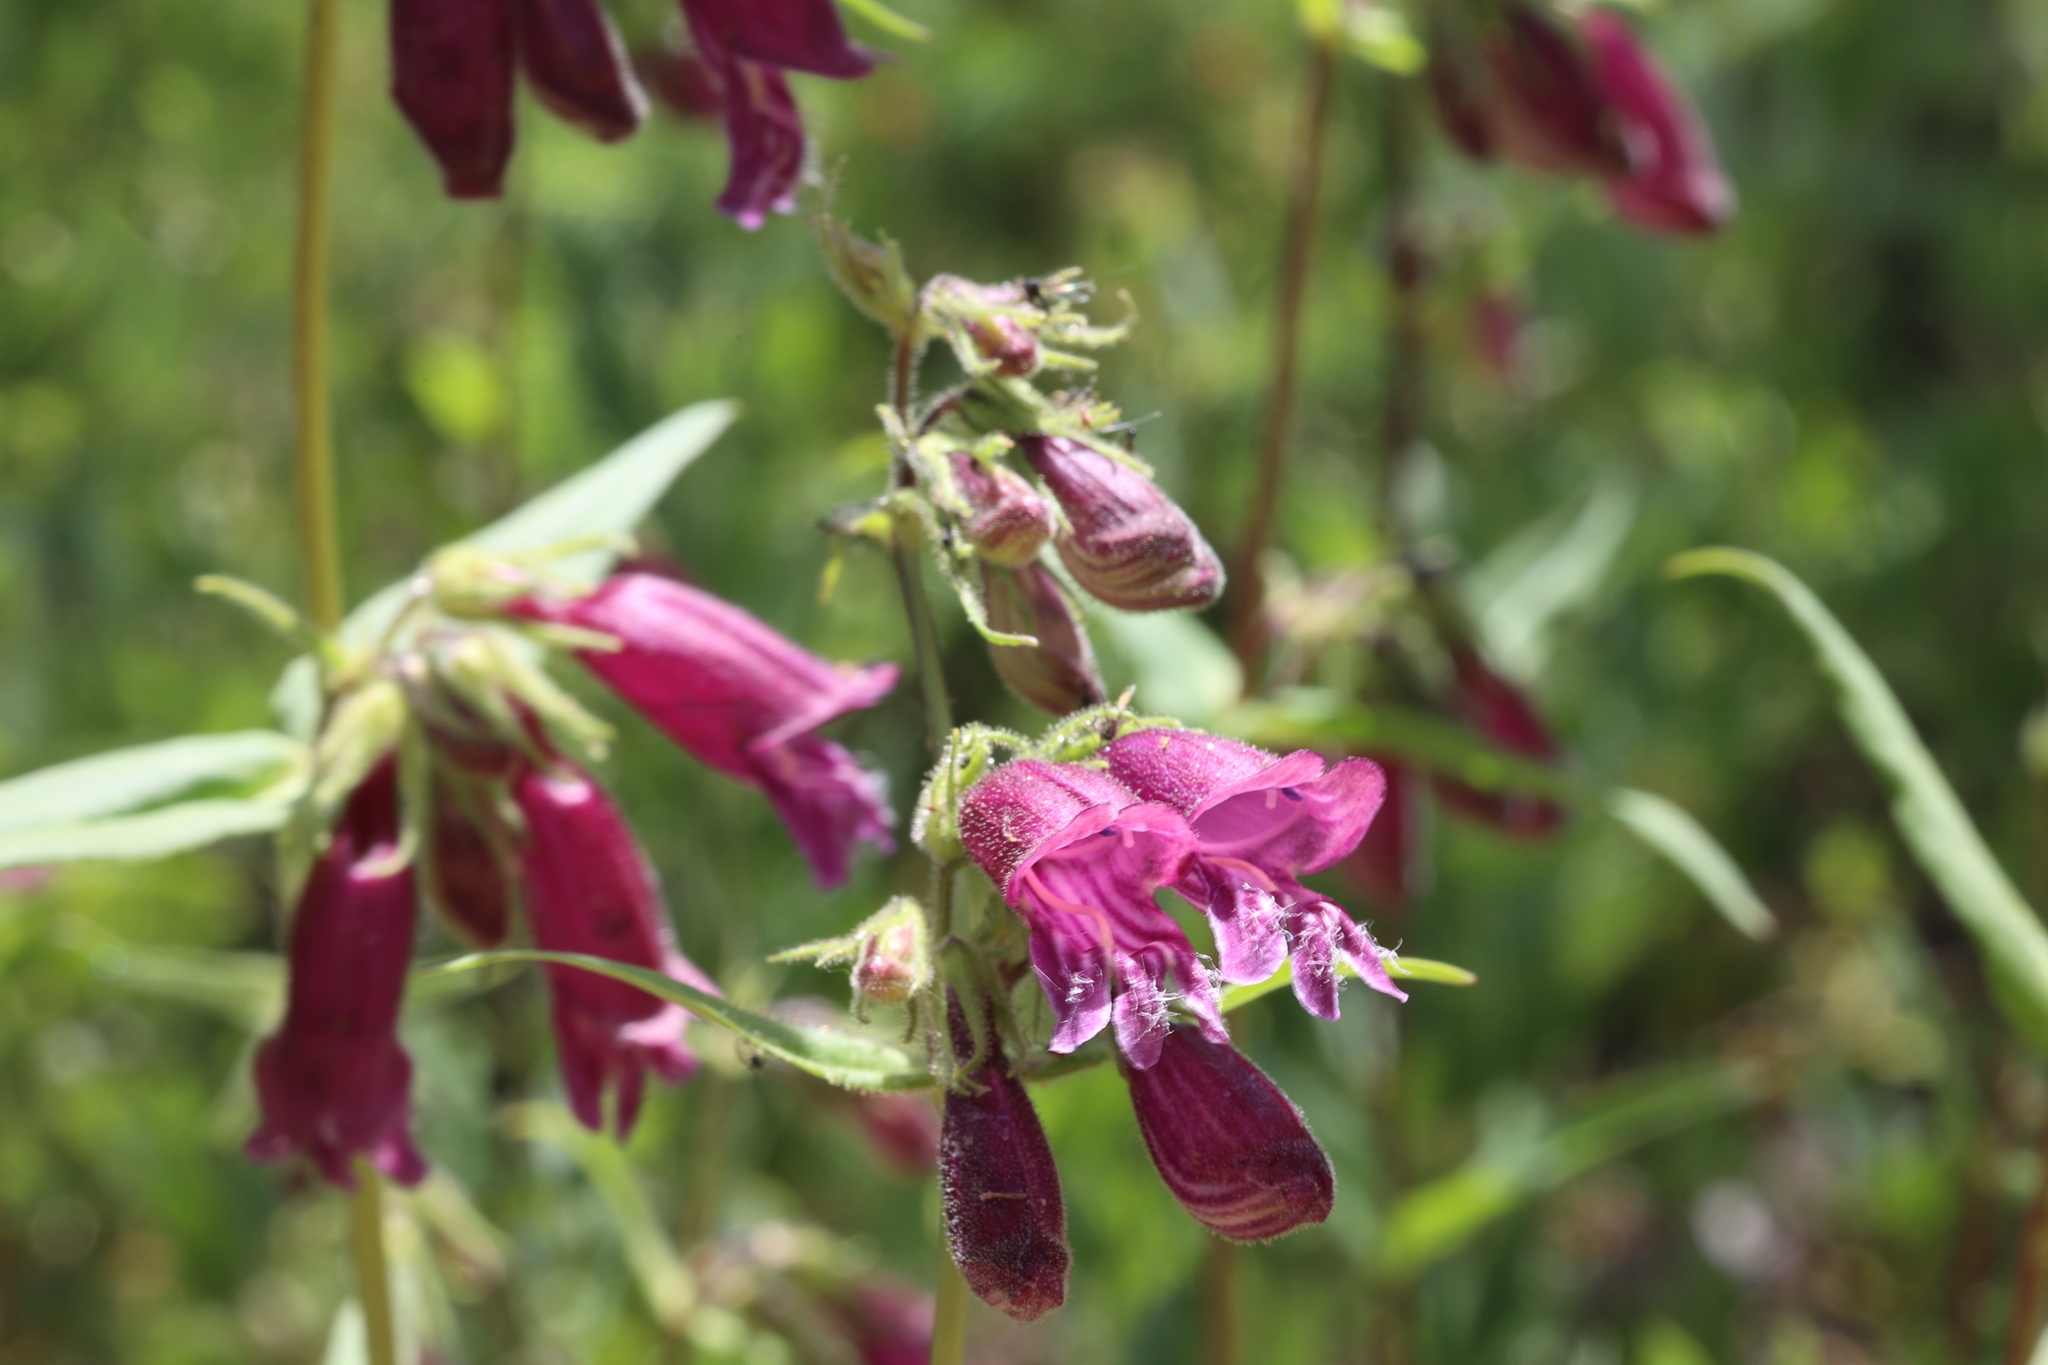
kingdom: Plantae
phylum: Tracheophyta
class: Magnoliopsida
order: Lamiales
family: Plantaginaceae
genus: Penstemon
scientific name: Penstemon whippleanus
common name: Whipple's penstemon
